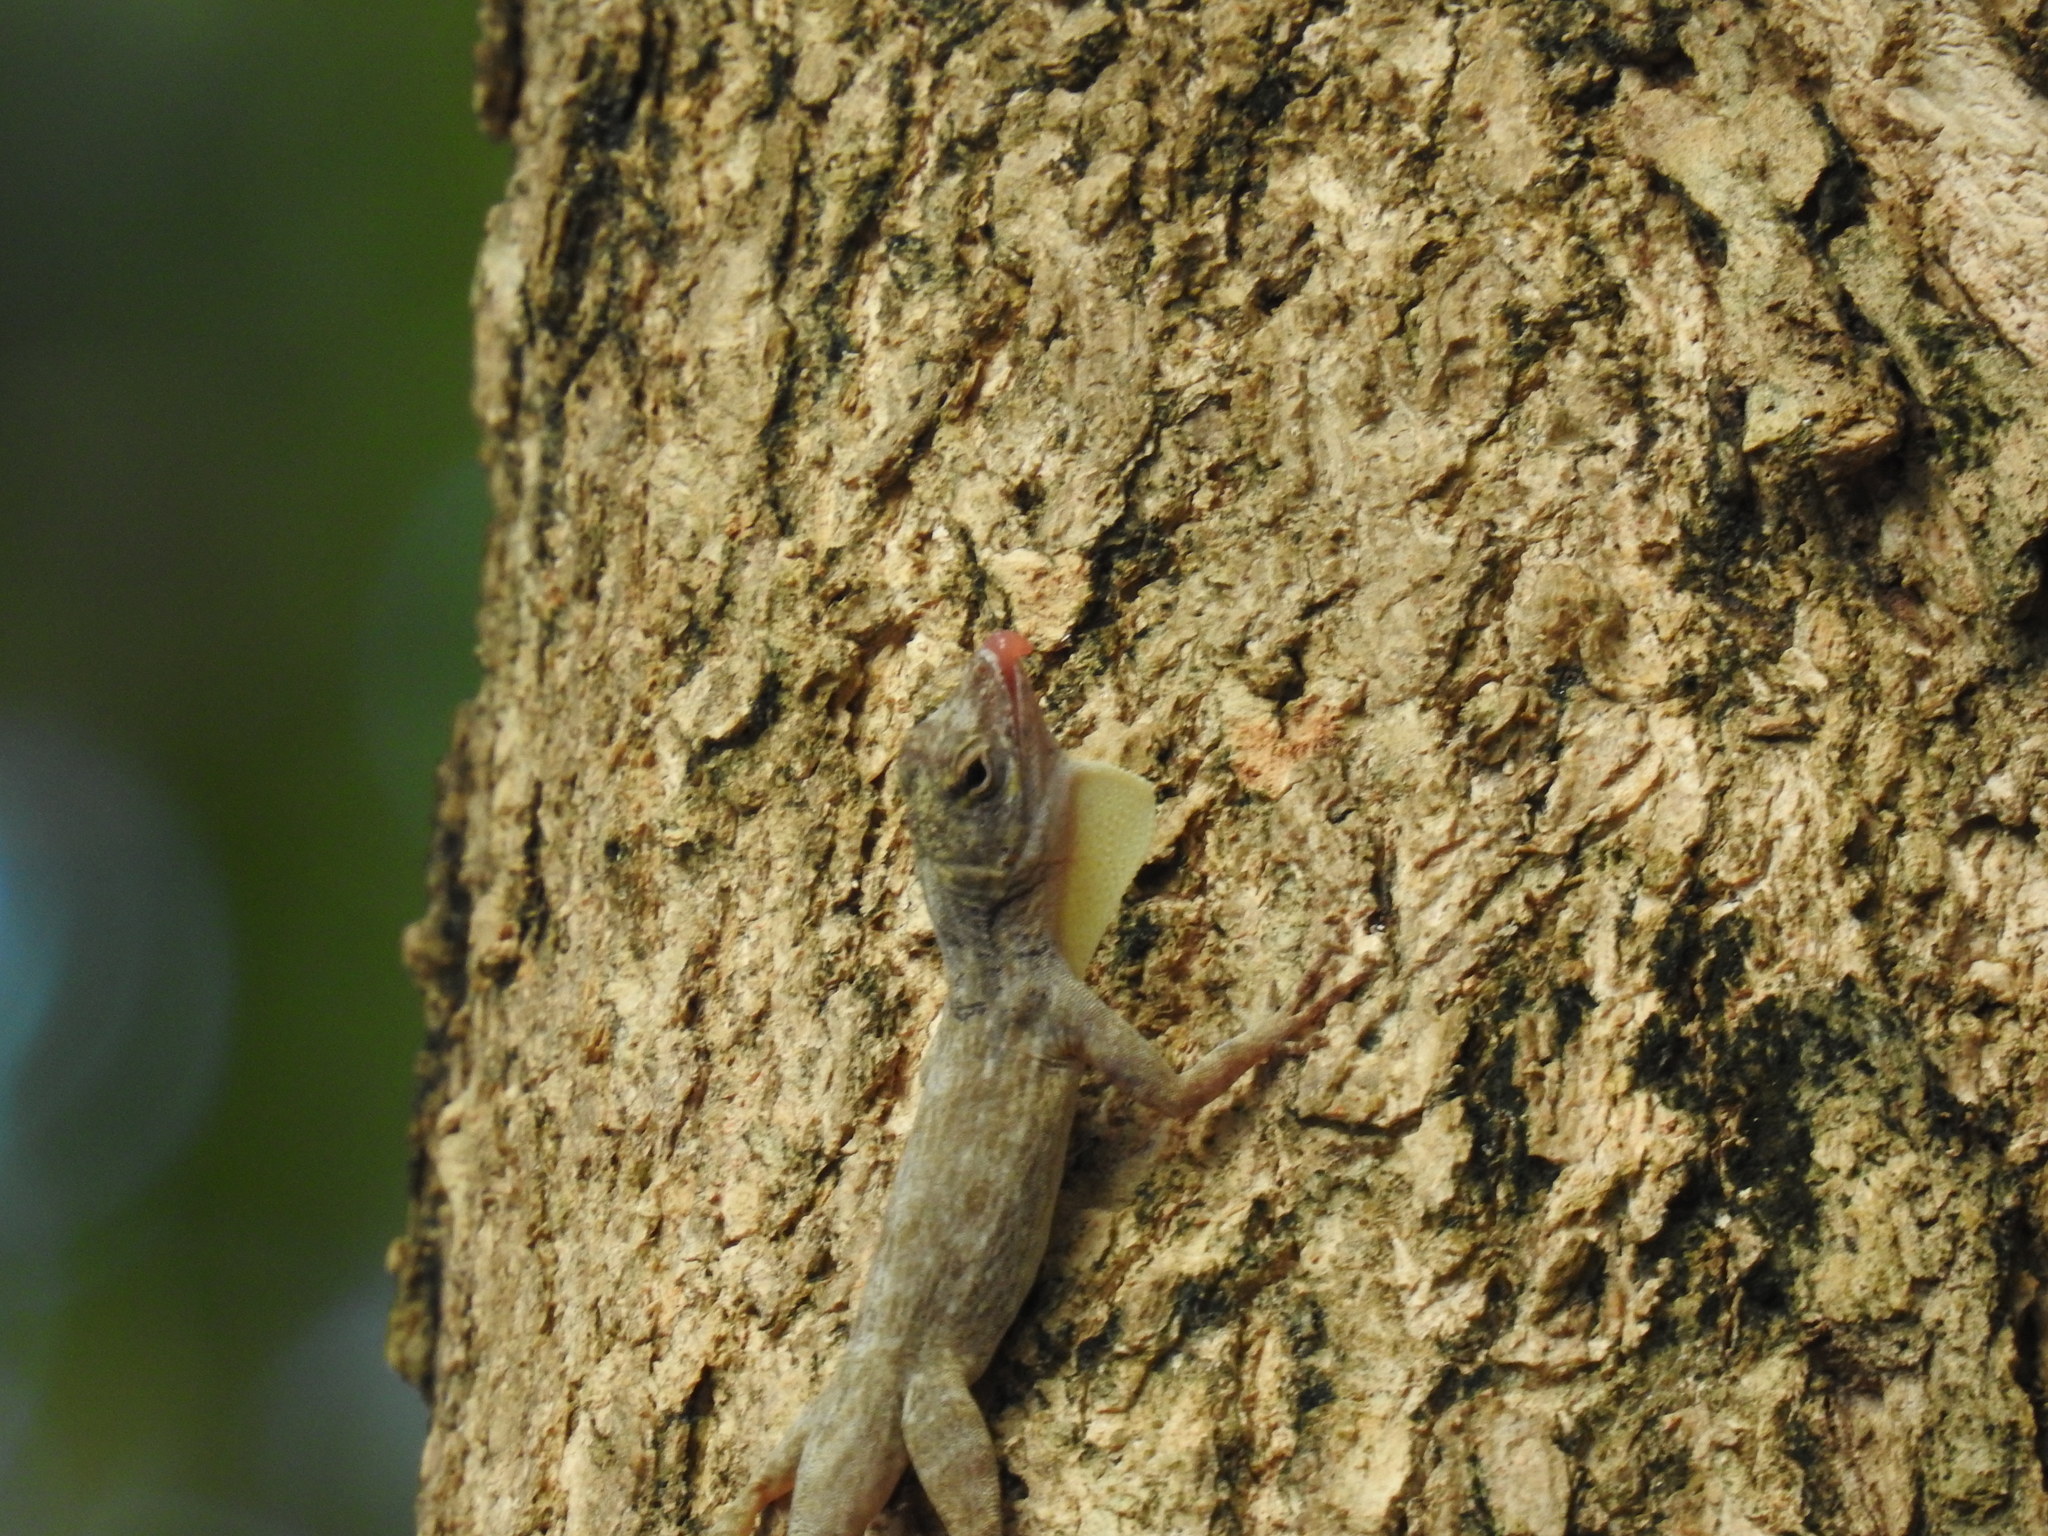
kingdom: Animalia
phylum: Chordata
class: Squamata
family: Dactyloidae
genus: Anolis
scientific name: Anolis distichus
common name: Bark anole
